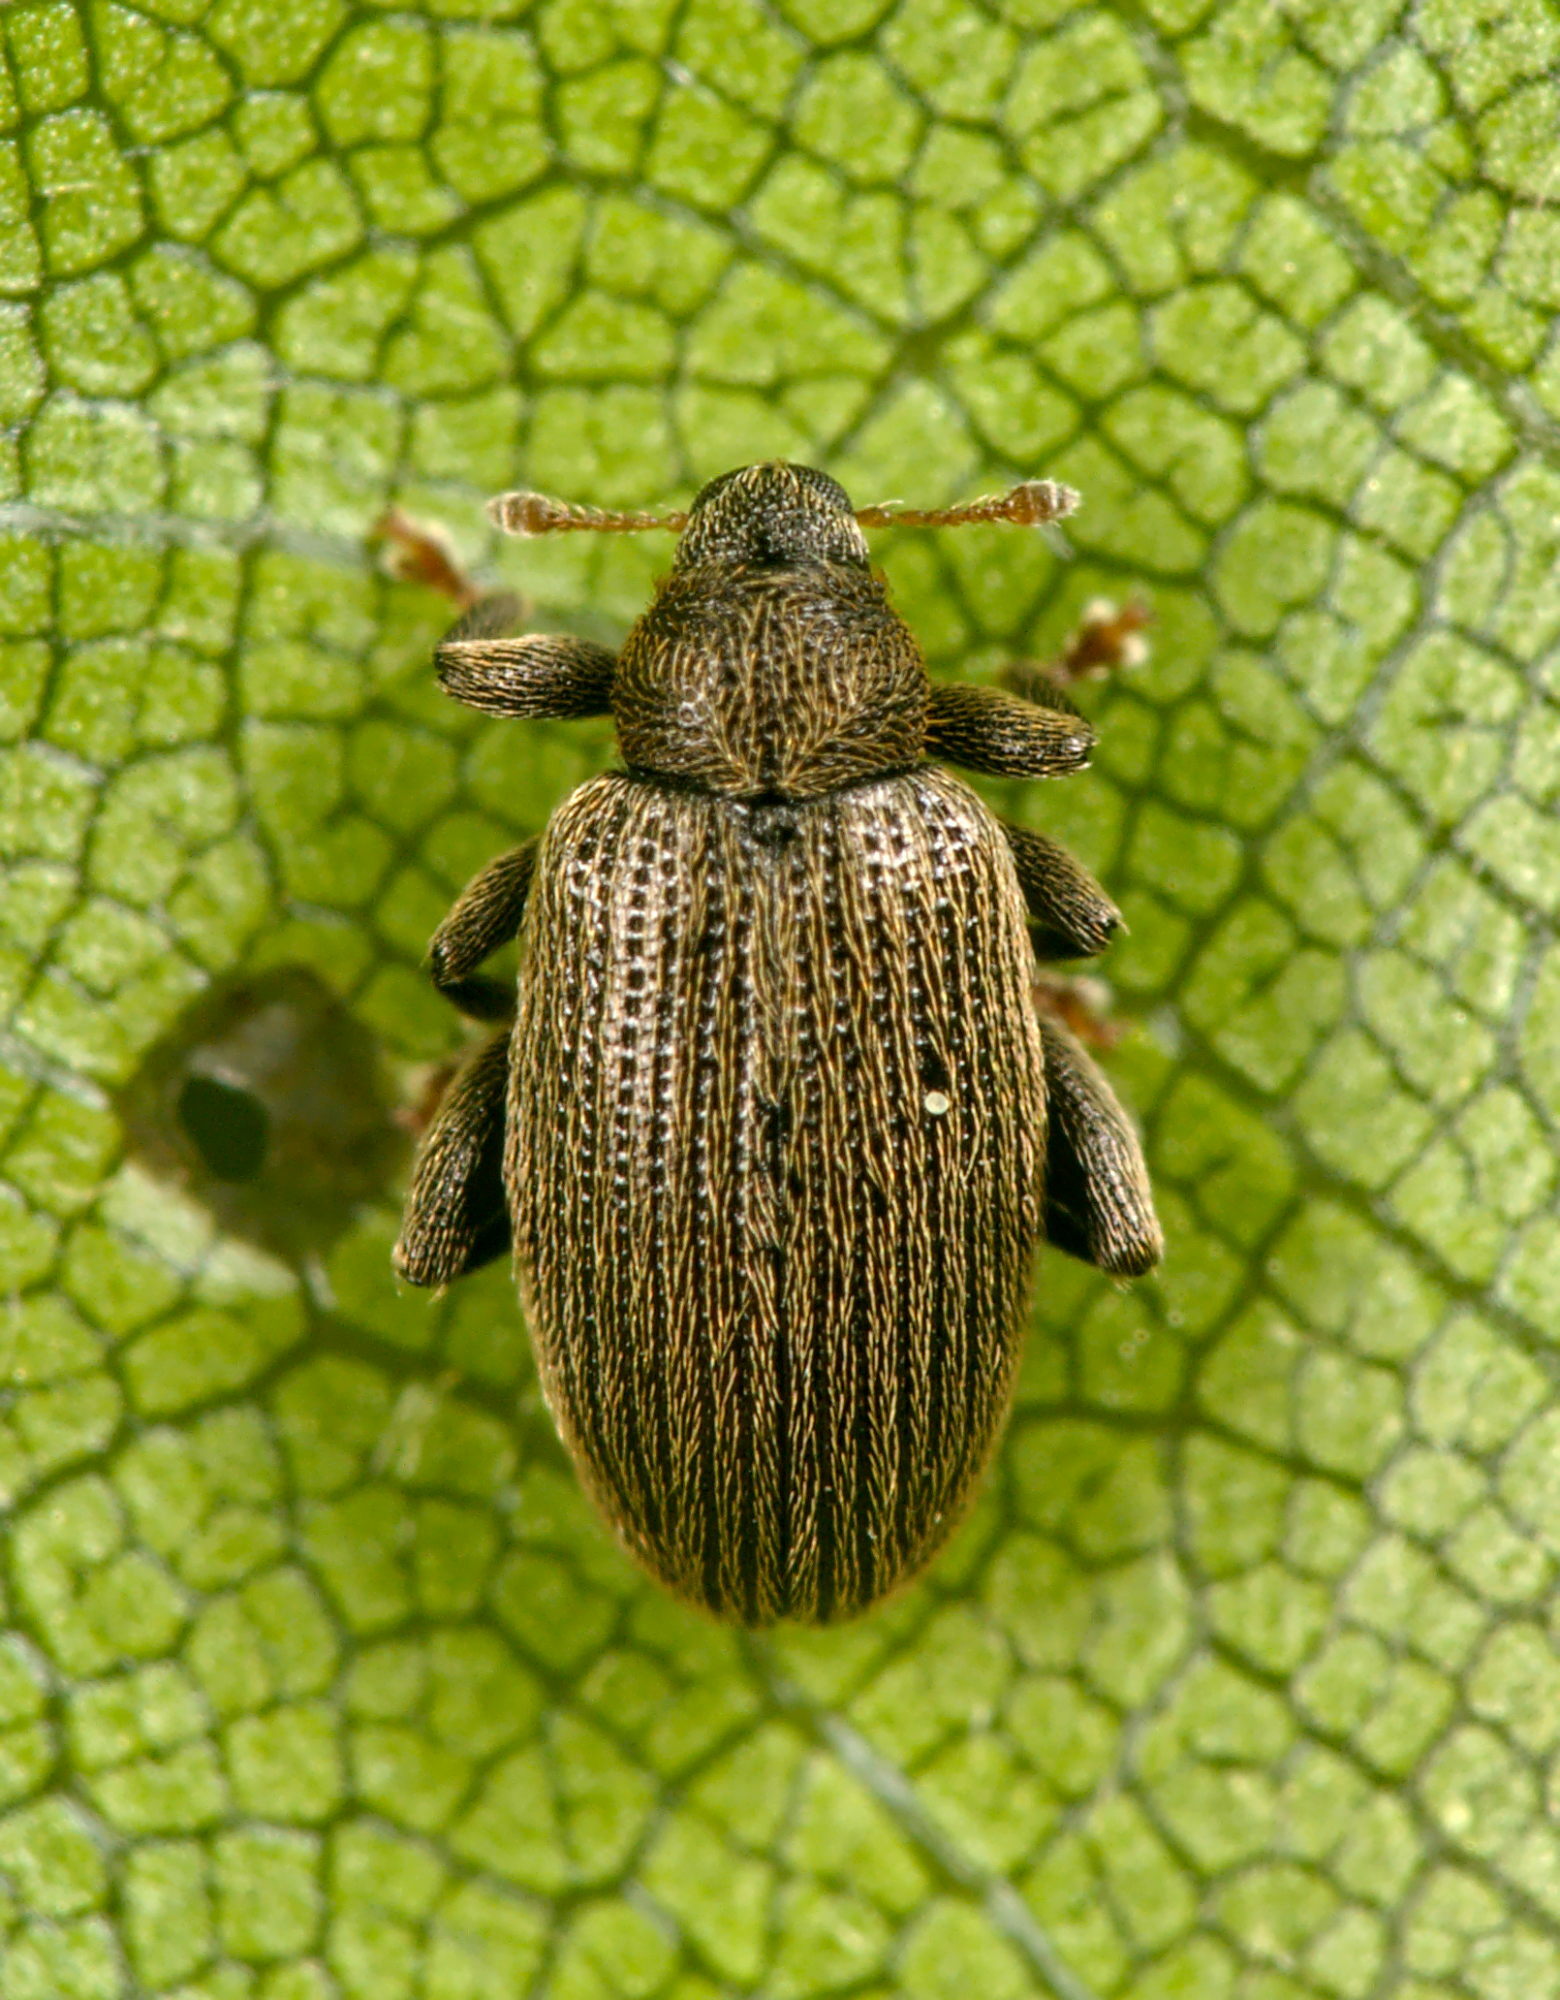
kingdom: Animalia
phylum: Arthropoda
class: Insecta
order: Coleoptera
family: Curculionidae
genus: Orchestes
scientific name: Orchestes fagi
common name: Beech leaf miner
